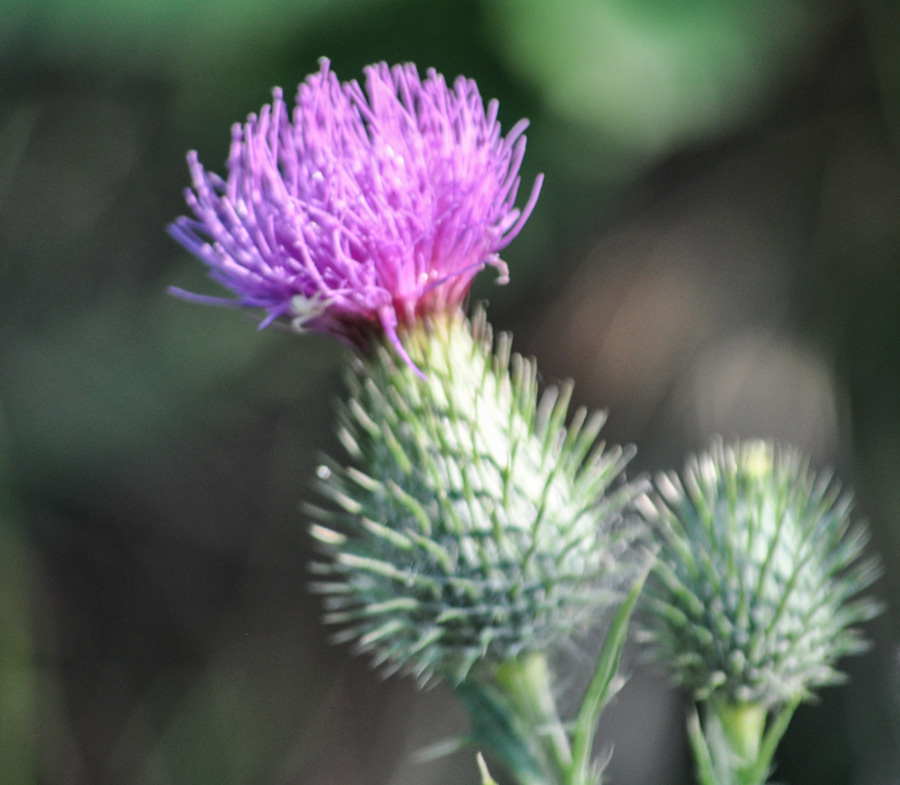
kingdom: Plantae
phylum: Tracheophyta
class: Magnoliopsida
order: Asterales
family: Asteraceae
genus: Cirsium
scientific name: Cirsium vulgare
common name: Bull thistle
